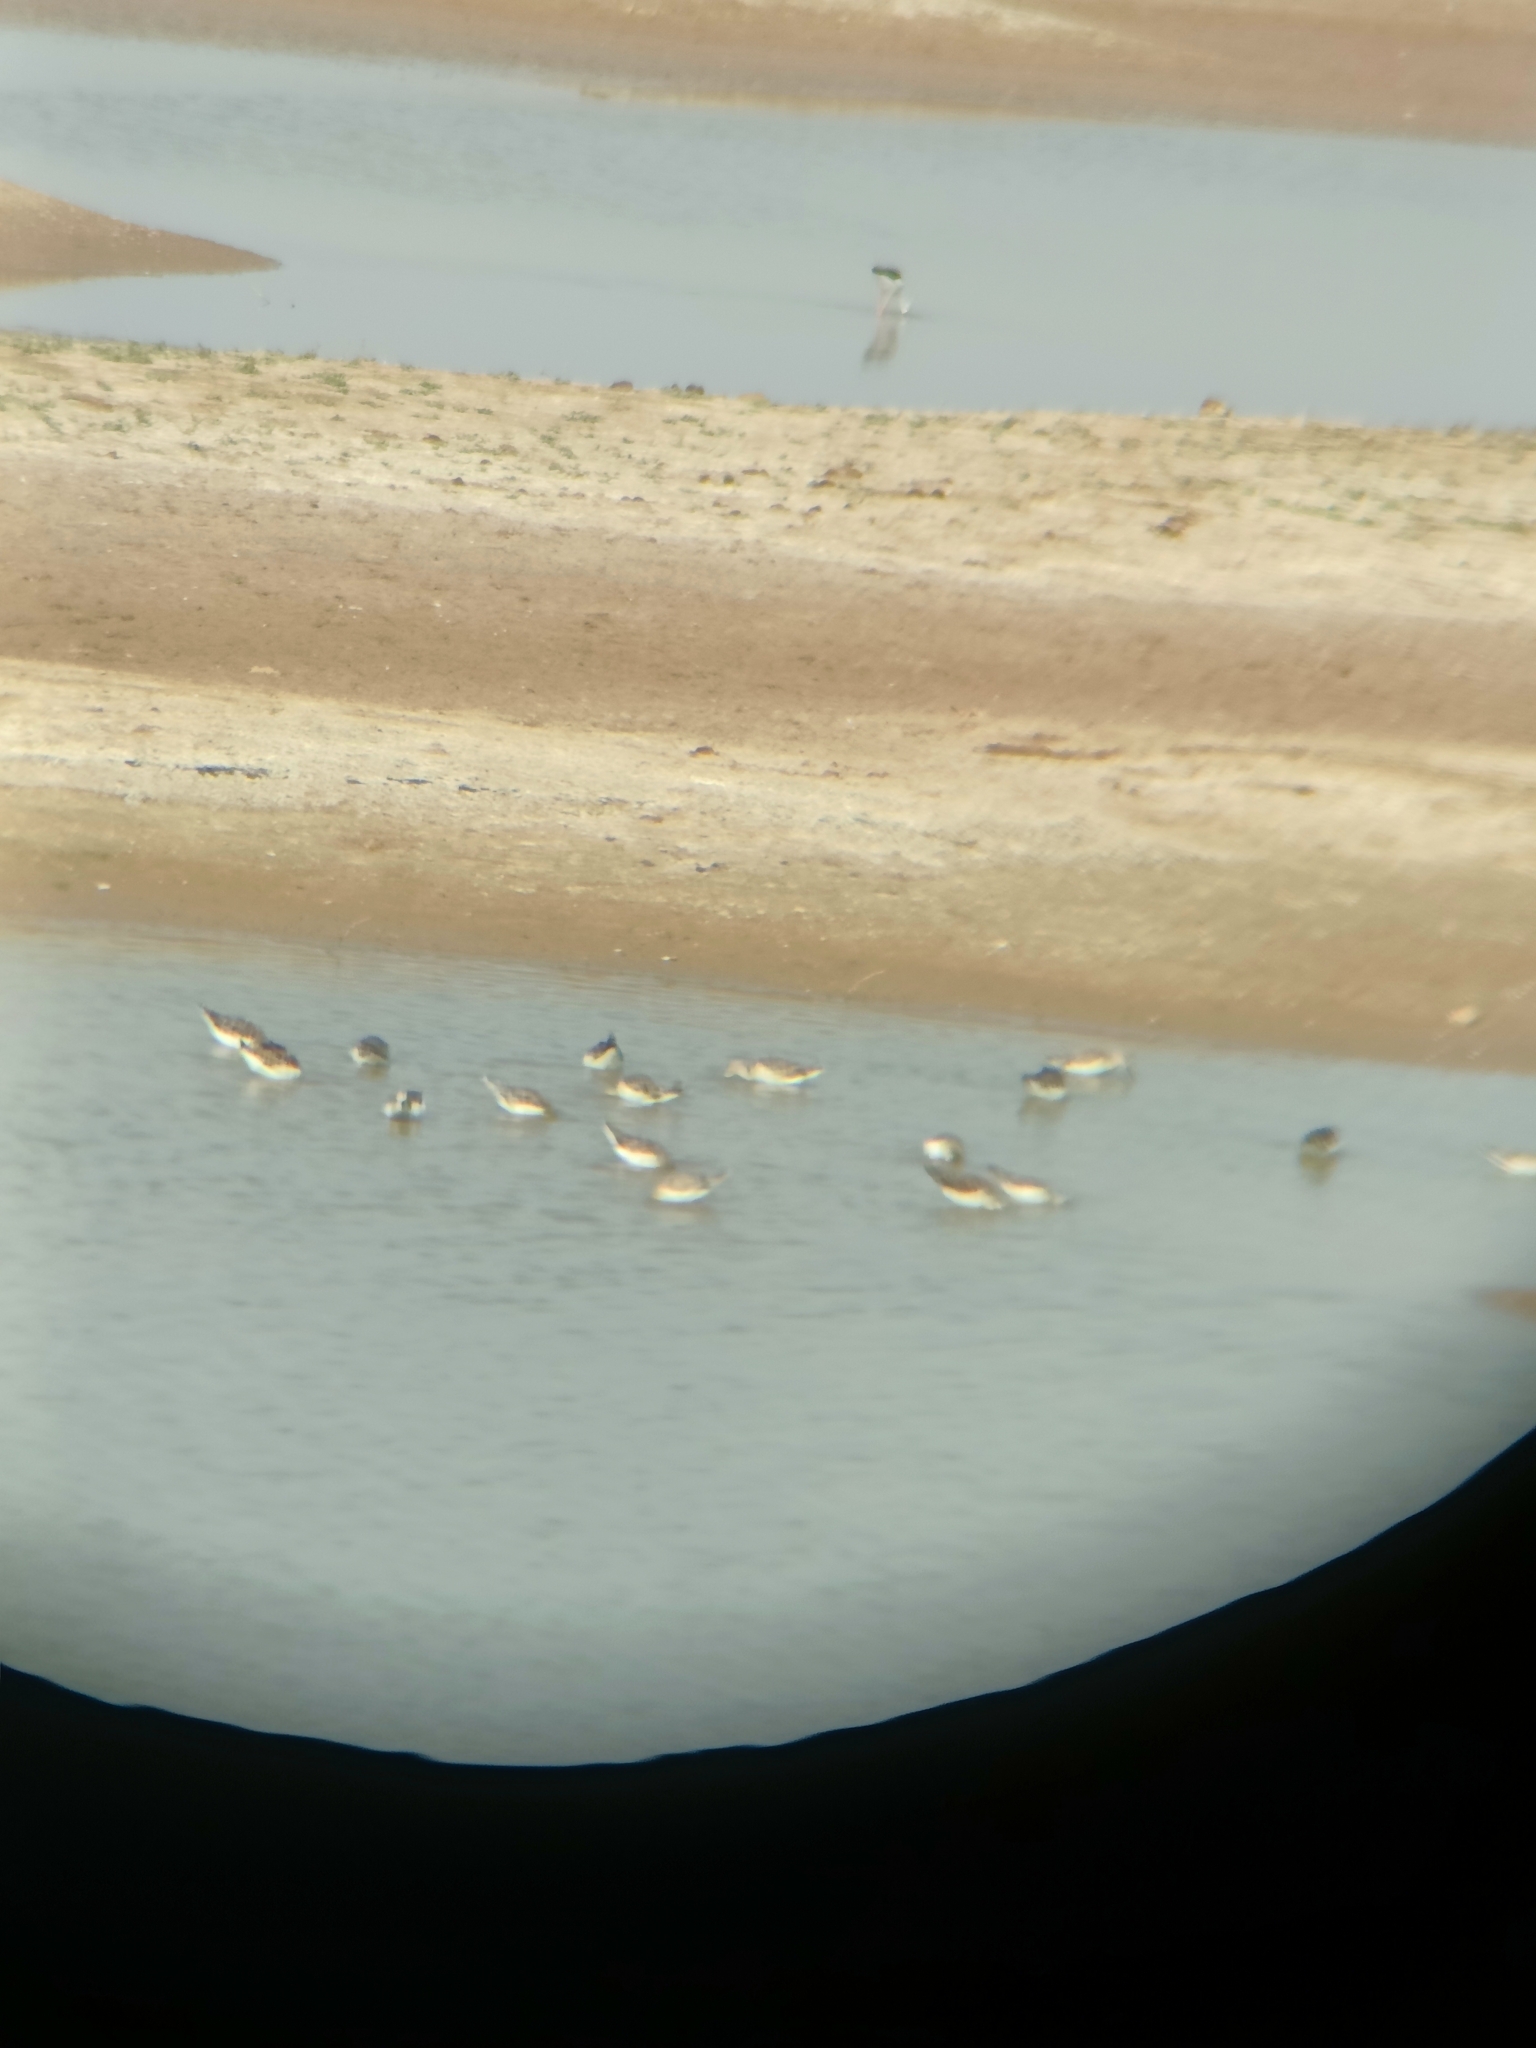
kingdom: Animalia
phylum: Chordata
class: Aves
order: Charadriiformes
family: Scolopacidae
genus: Calidris
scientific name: Calidris pugnax
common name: Ruff
